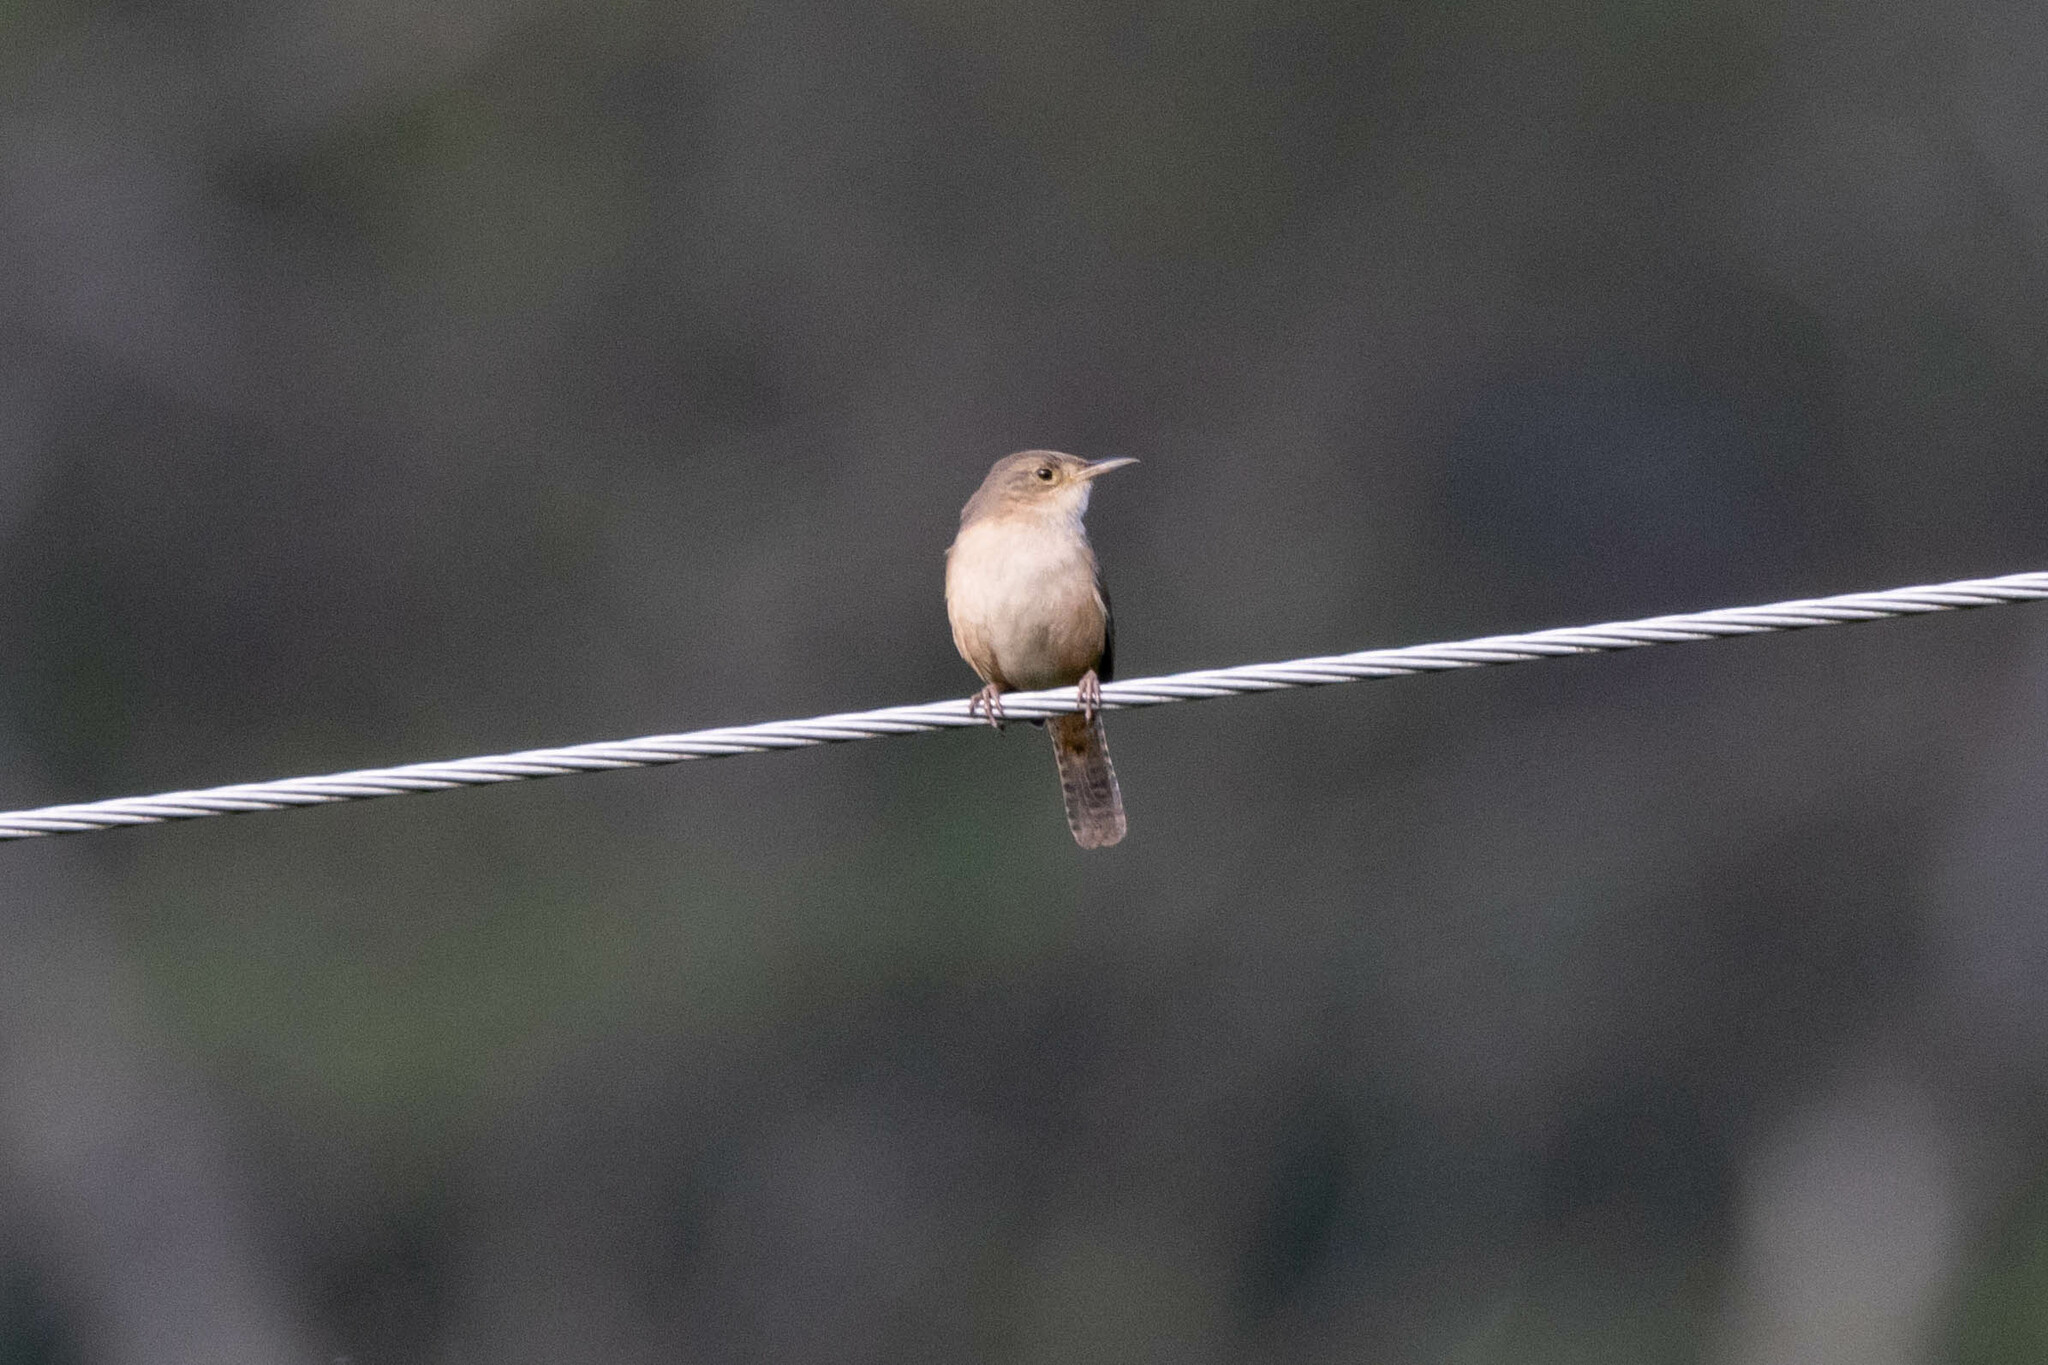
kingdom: Animalia
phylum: Chordata
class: Aves
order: Passeriformes
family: Troglodytidae
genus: Troglodytes
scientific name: Troglodytes aedon
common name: House wren
